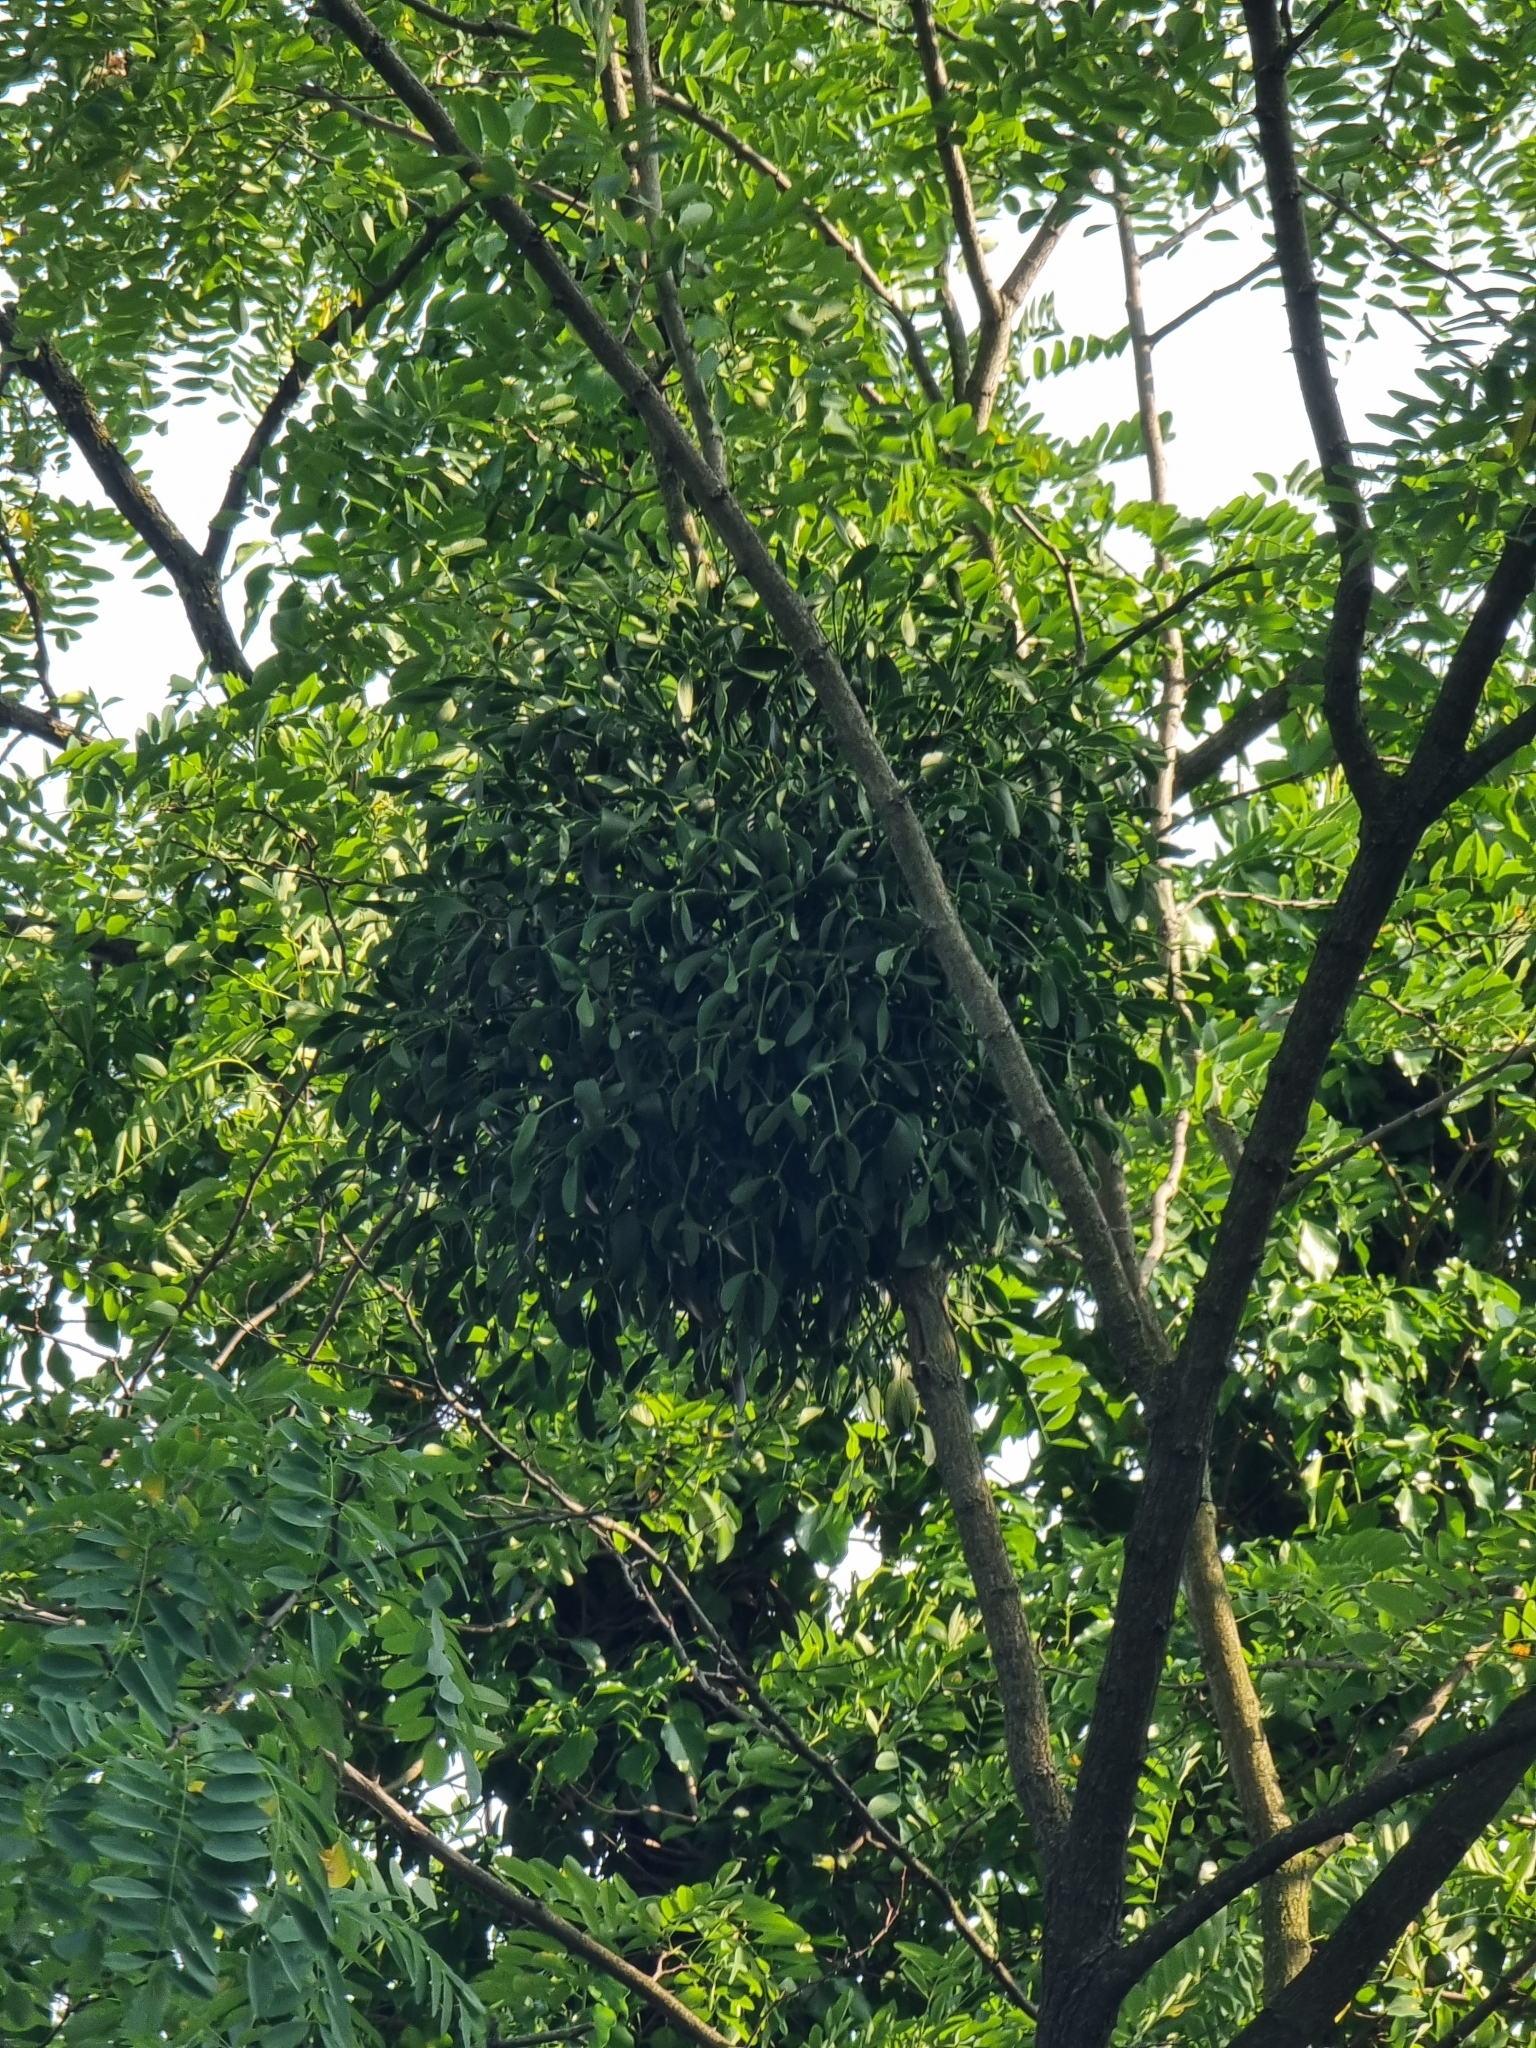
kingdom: Plantae
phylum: Tracheophyta
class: Magnoliopsida
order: Santalales
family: Viscaceae
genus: Viscum
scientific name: Viscum album
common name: Mistletoe
